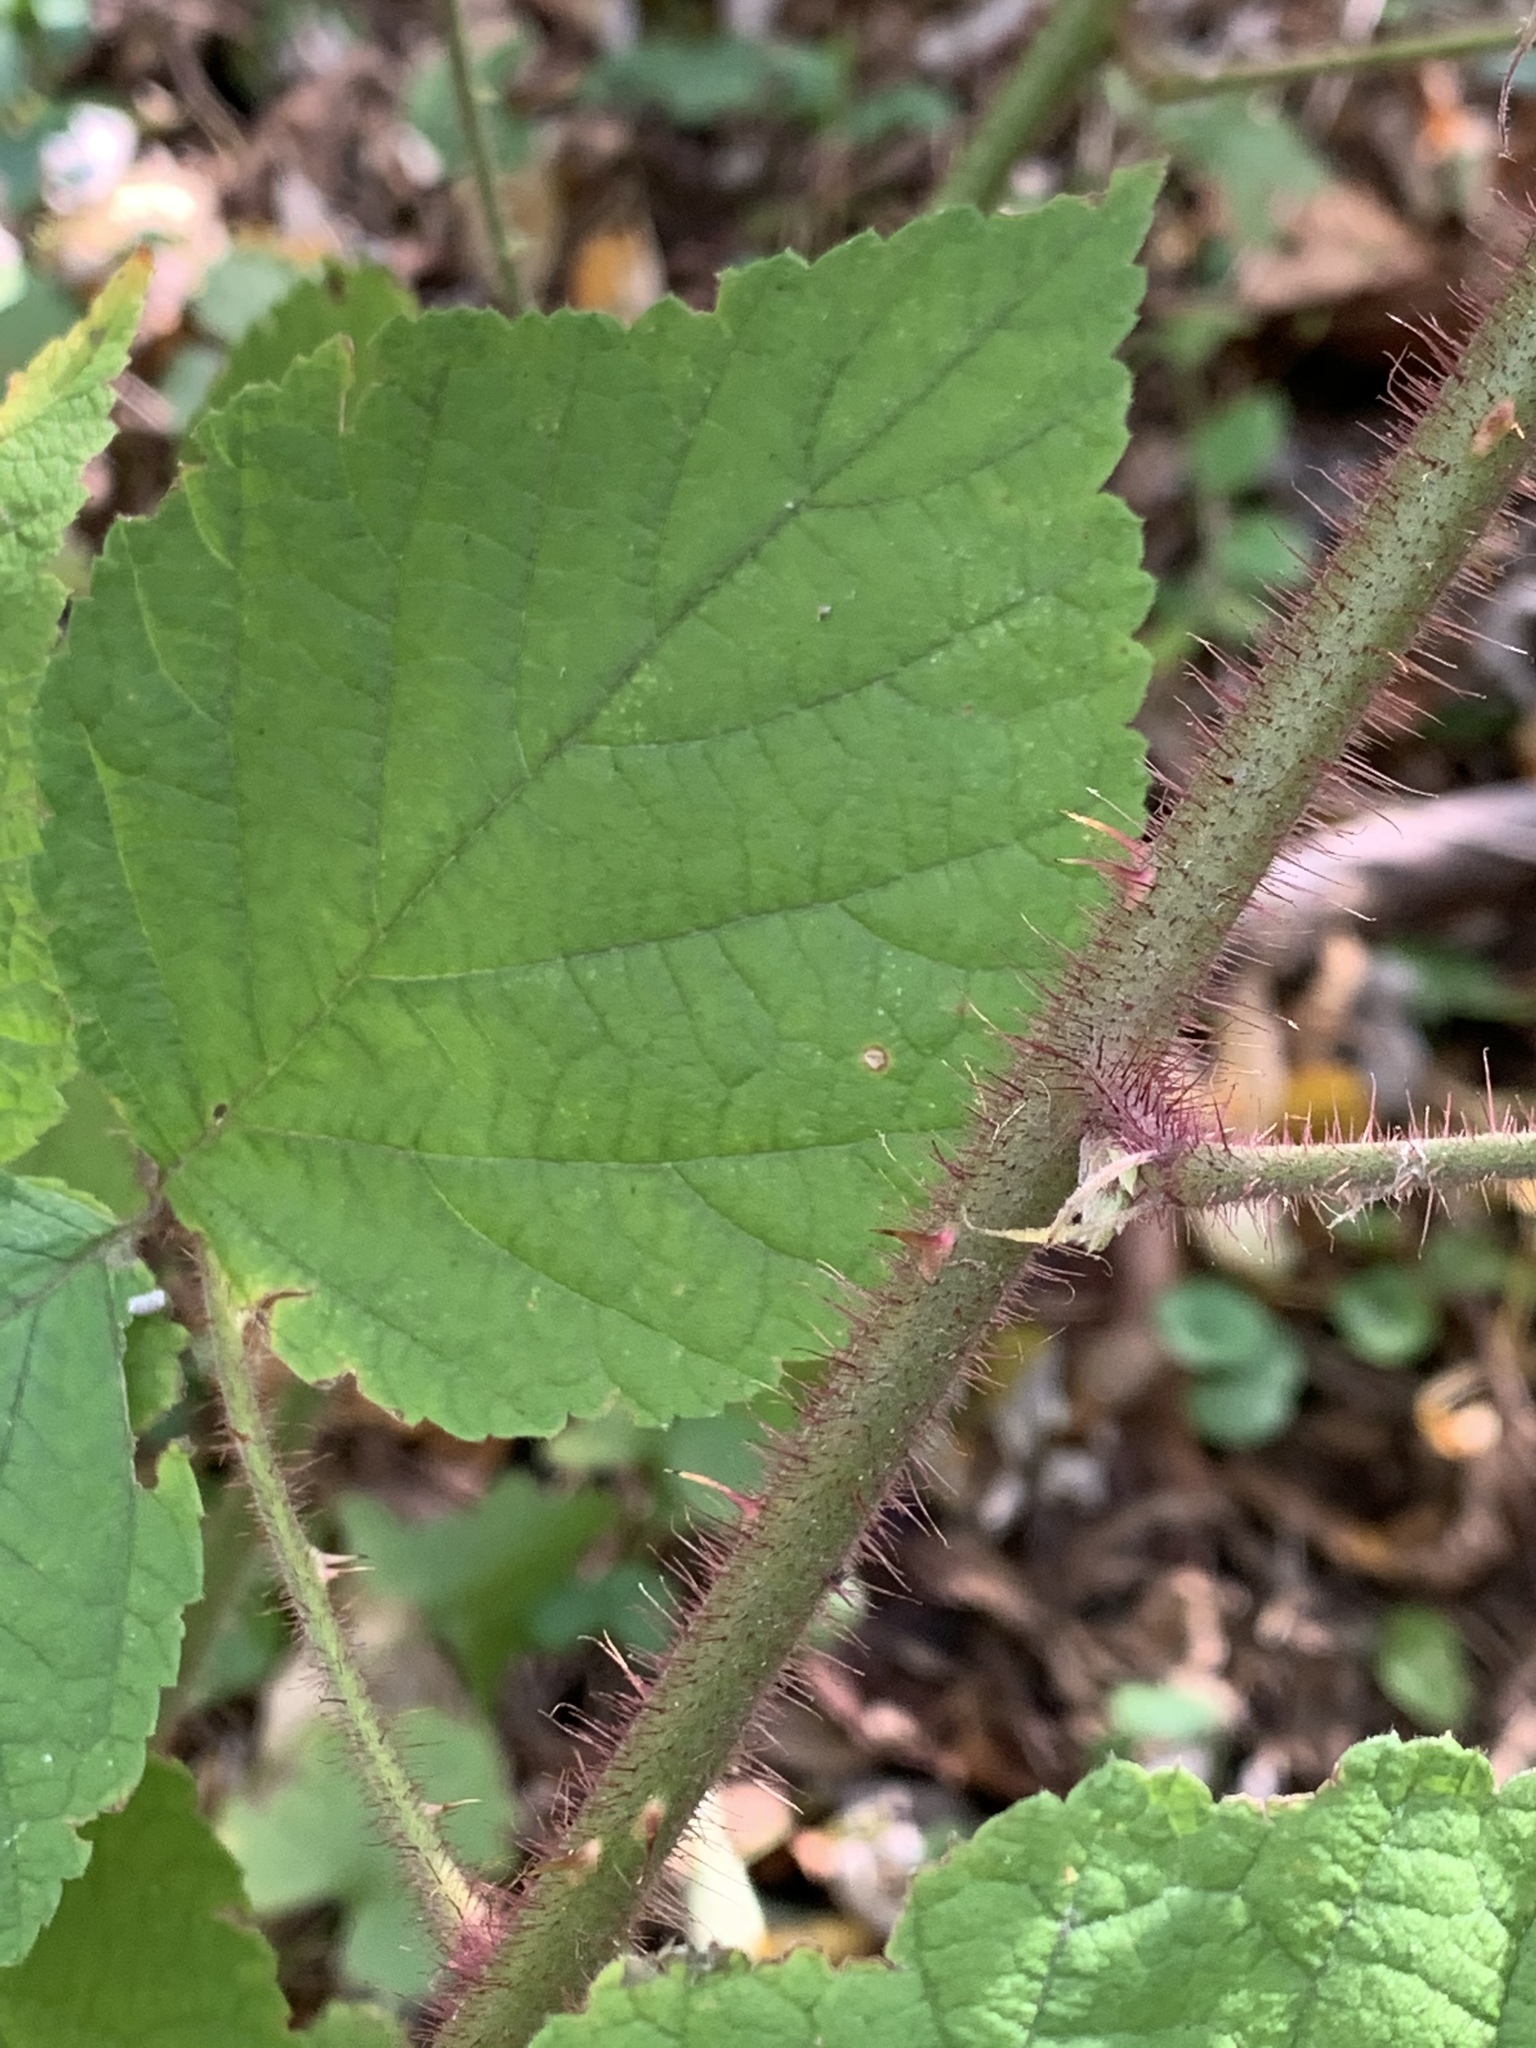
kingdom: Plantae
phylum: Tracheophyta
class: Magnoliopsida
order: Rosales
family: Rosaceae
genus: Rubus
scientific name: Rubus phoenicolasius
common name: Japanese wineberry
